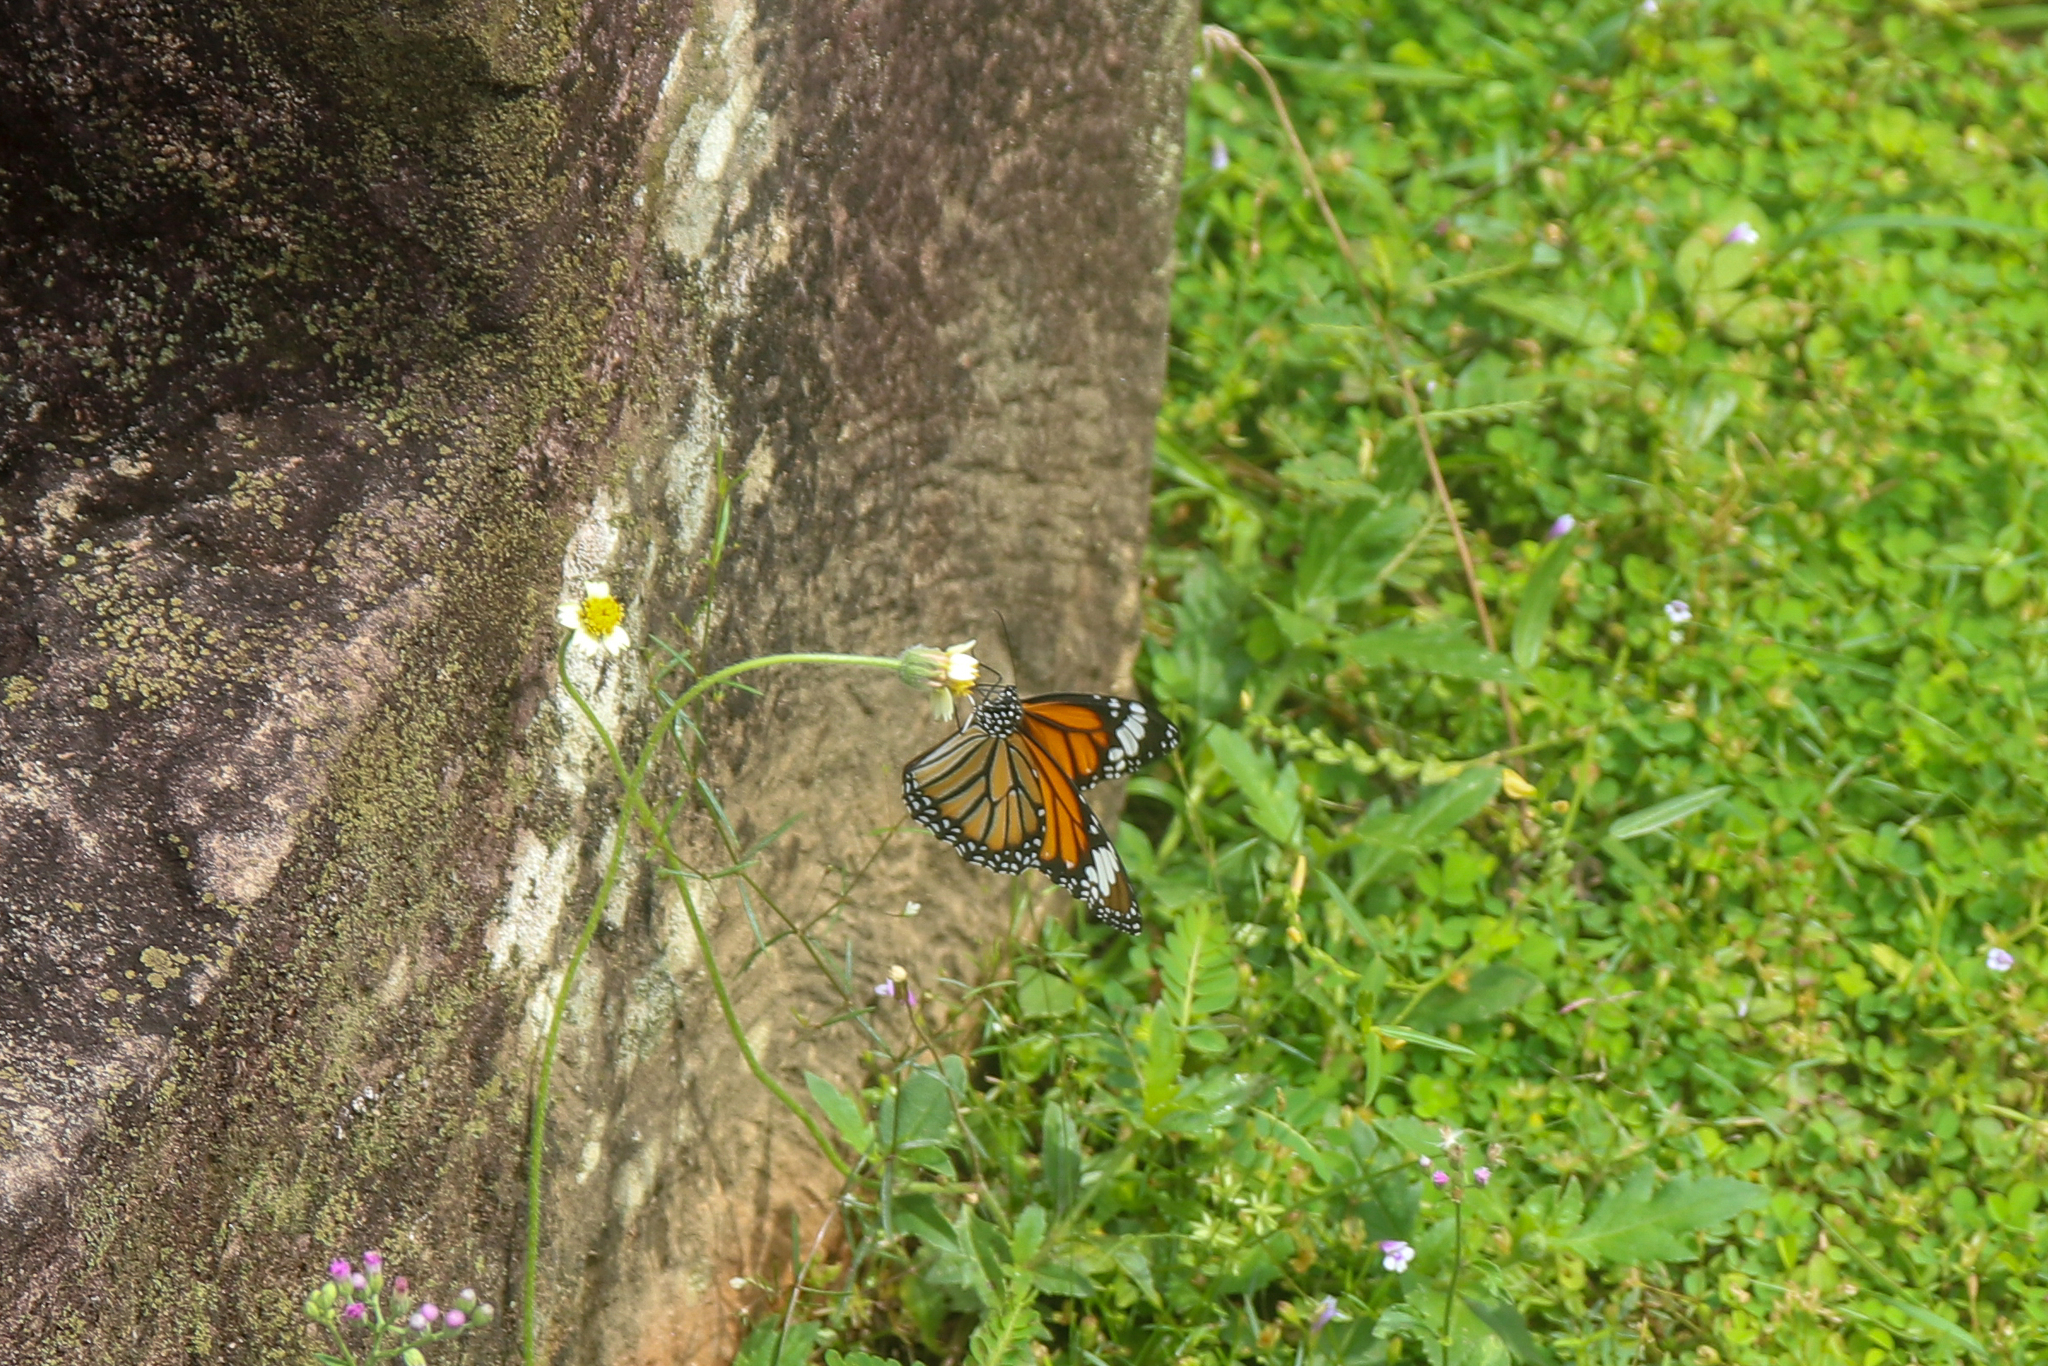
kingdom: Animalia
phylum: Arthropoda
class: Insecta
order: Lepidoptera
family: Nymphalidae
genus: Danaus
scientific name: Danaus genutia
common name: Common tiger butterfly
